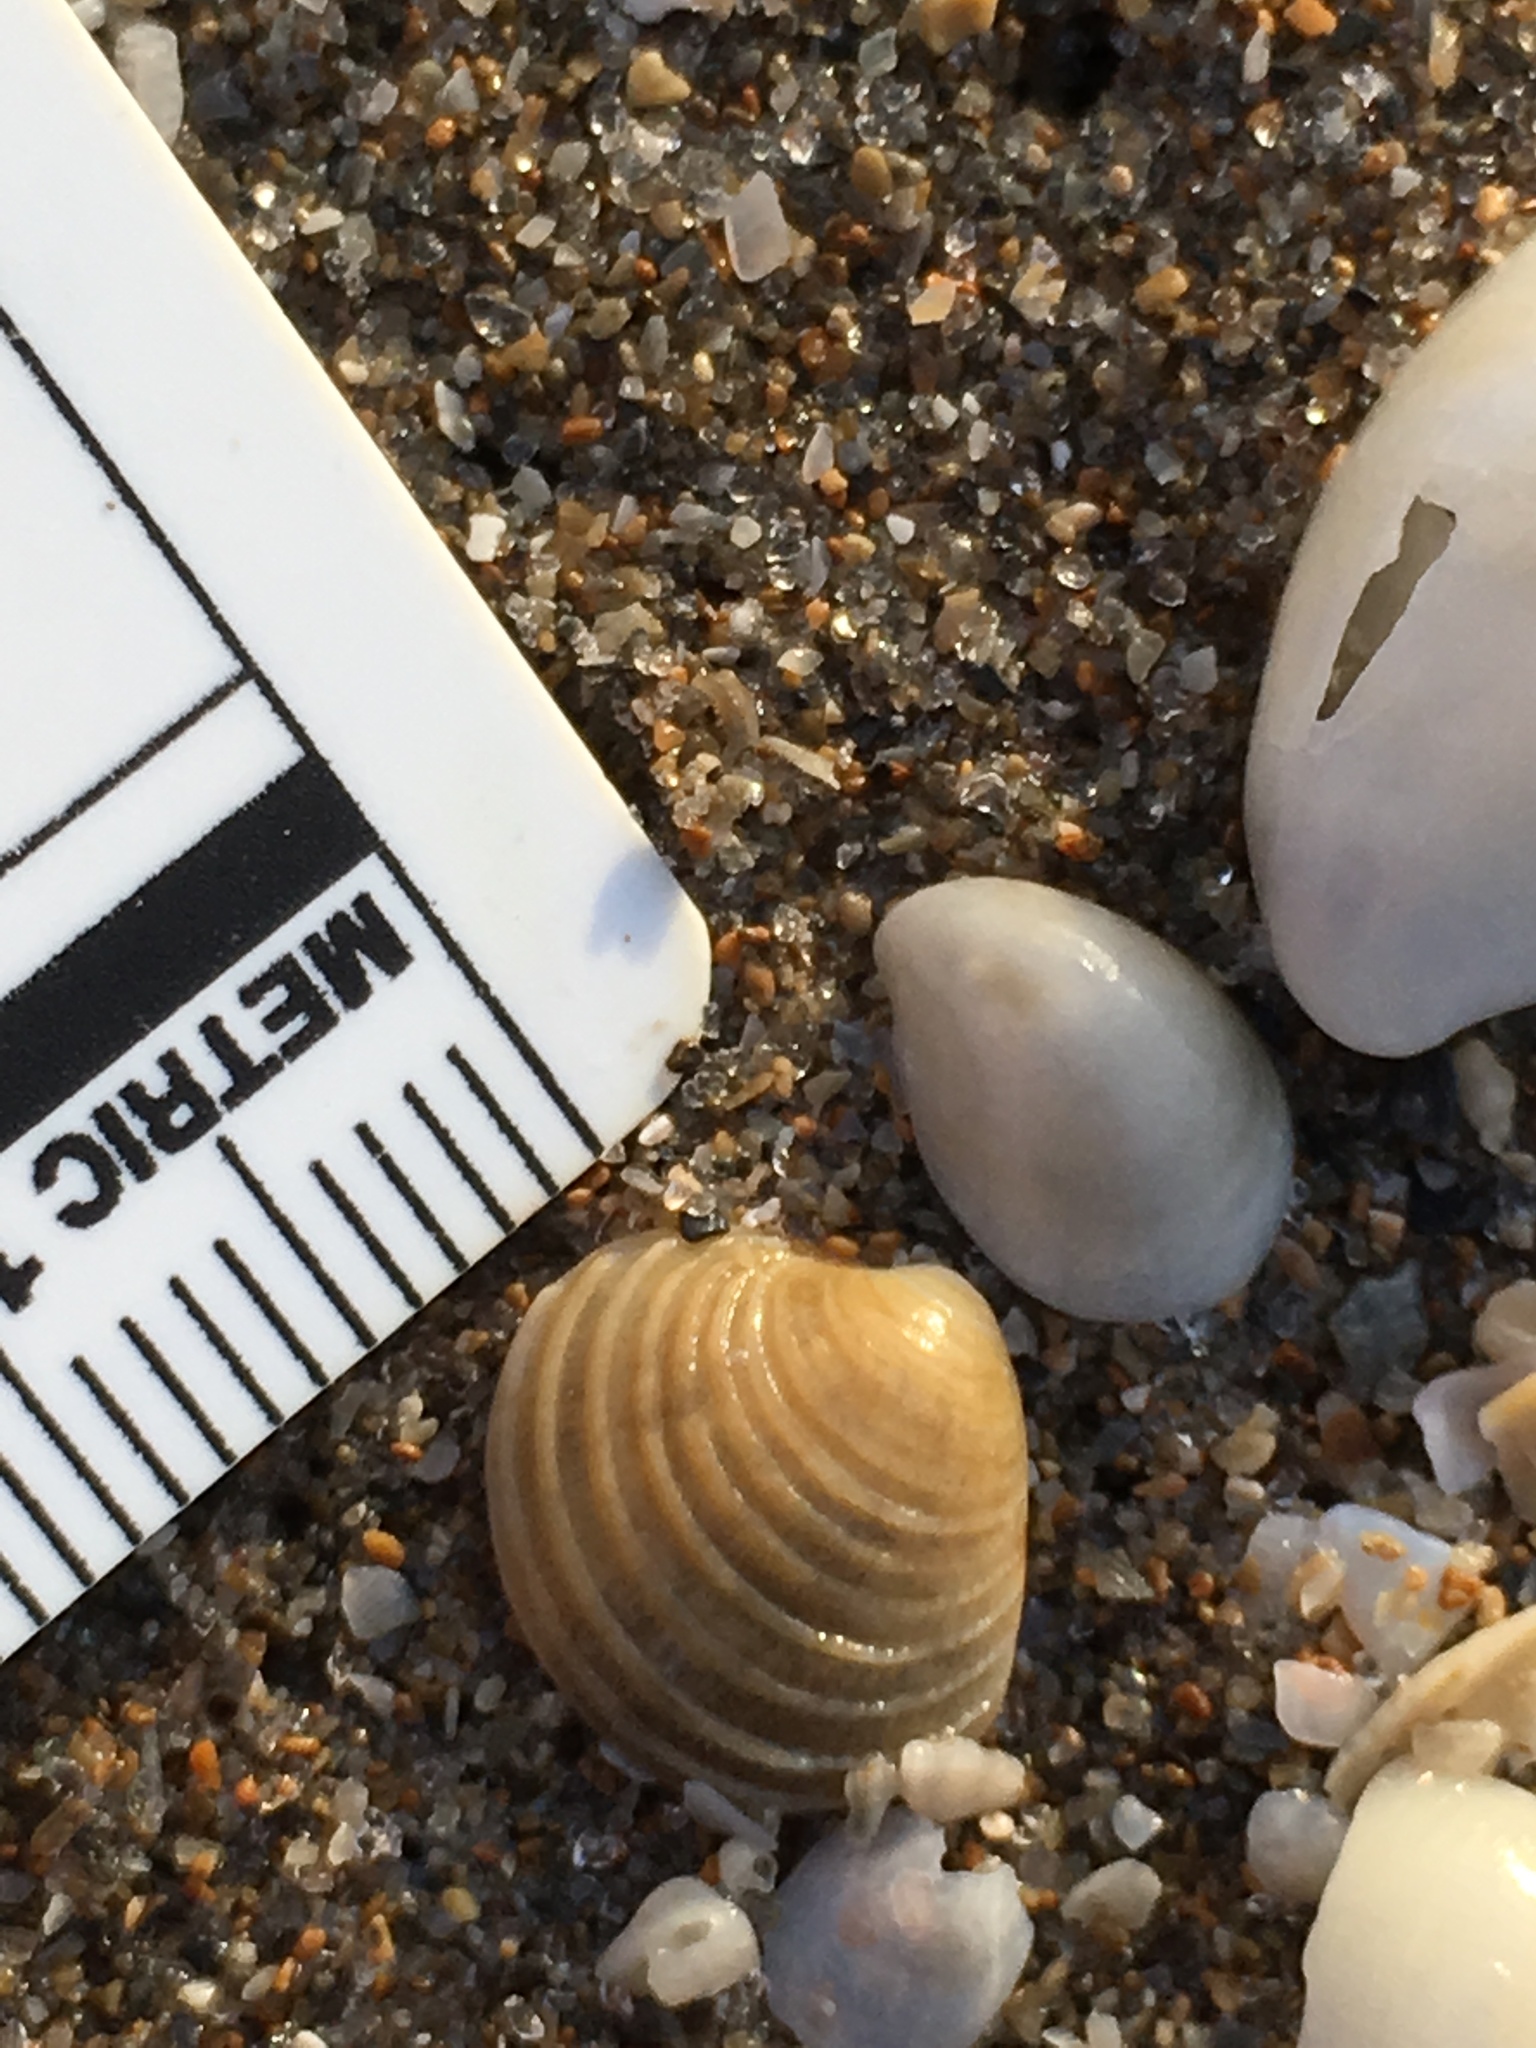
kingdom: Animalia
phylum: Mollusca
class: Bivalvia
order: Venerida
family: Veneridae
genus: Chionopsis
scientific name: Chionopsis intapurpurea
